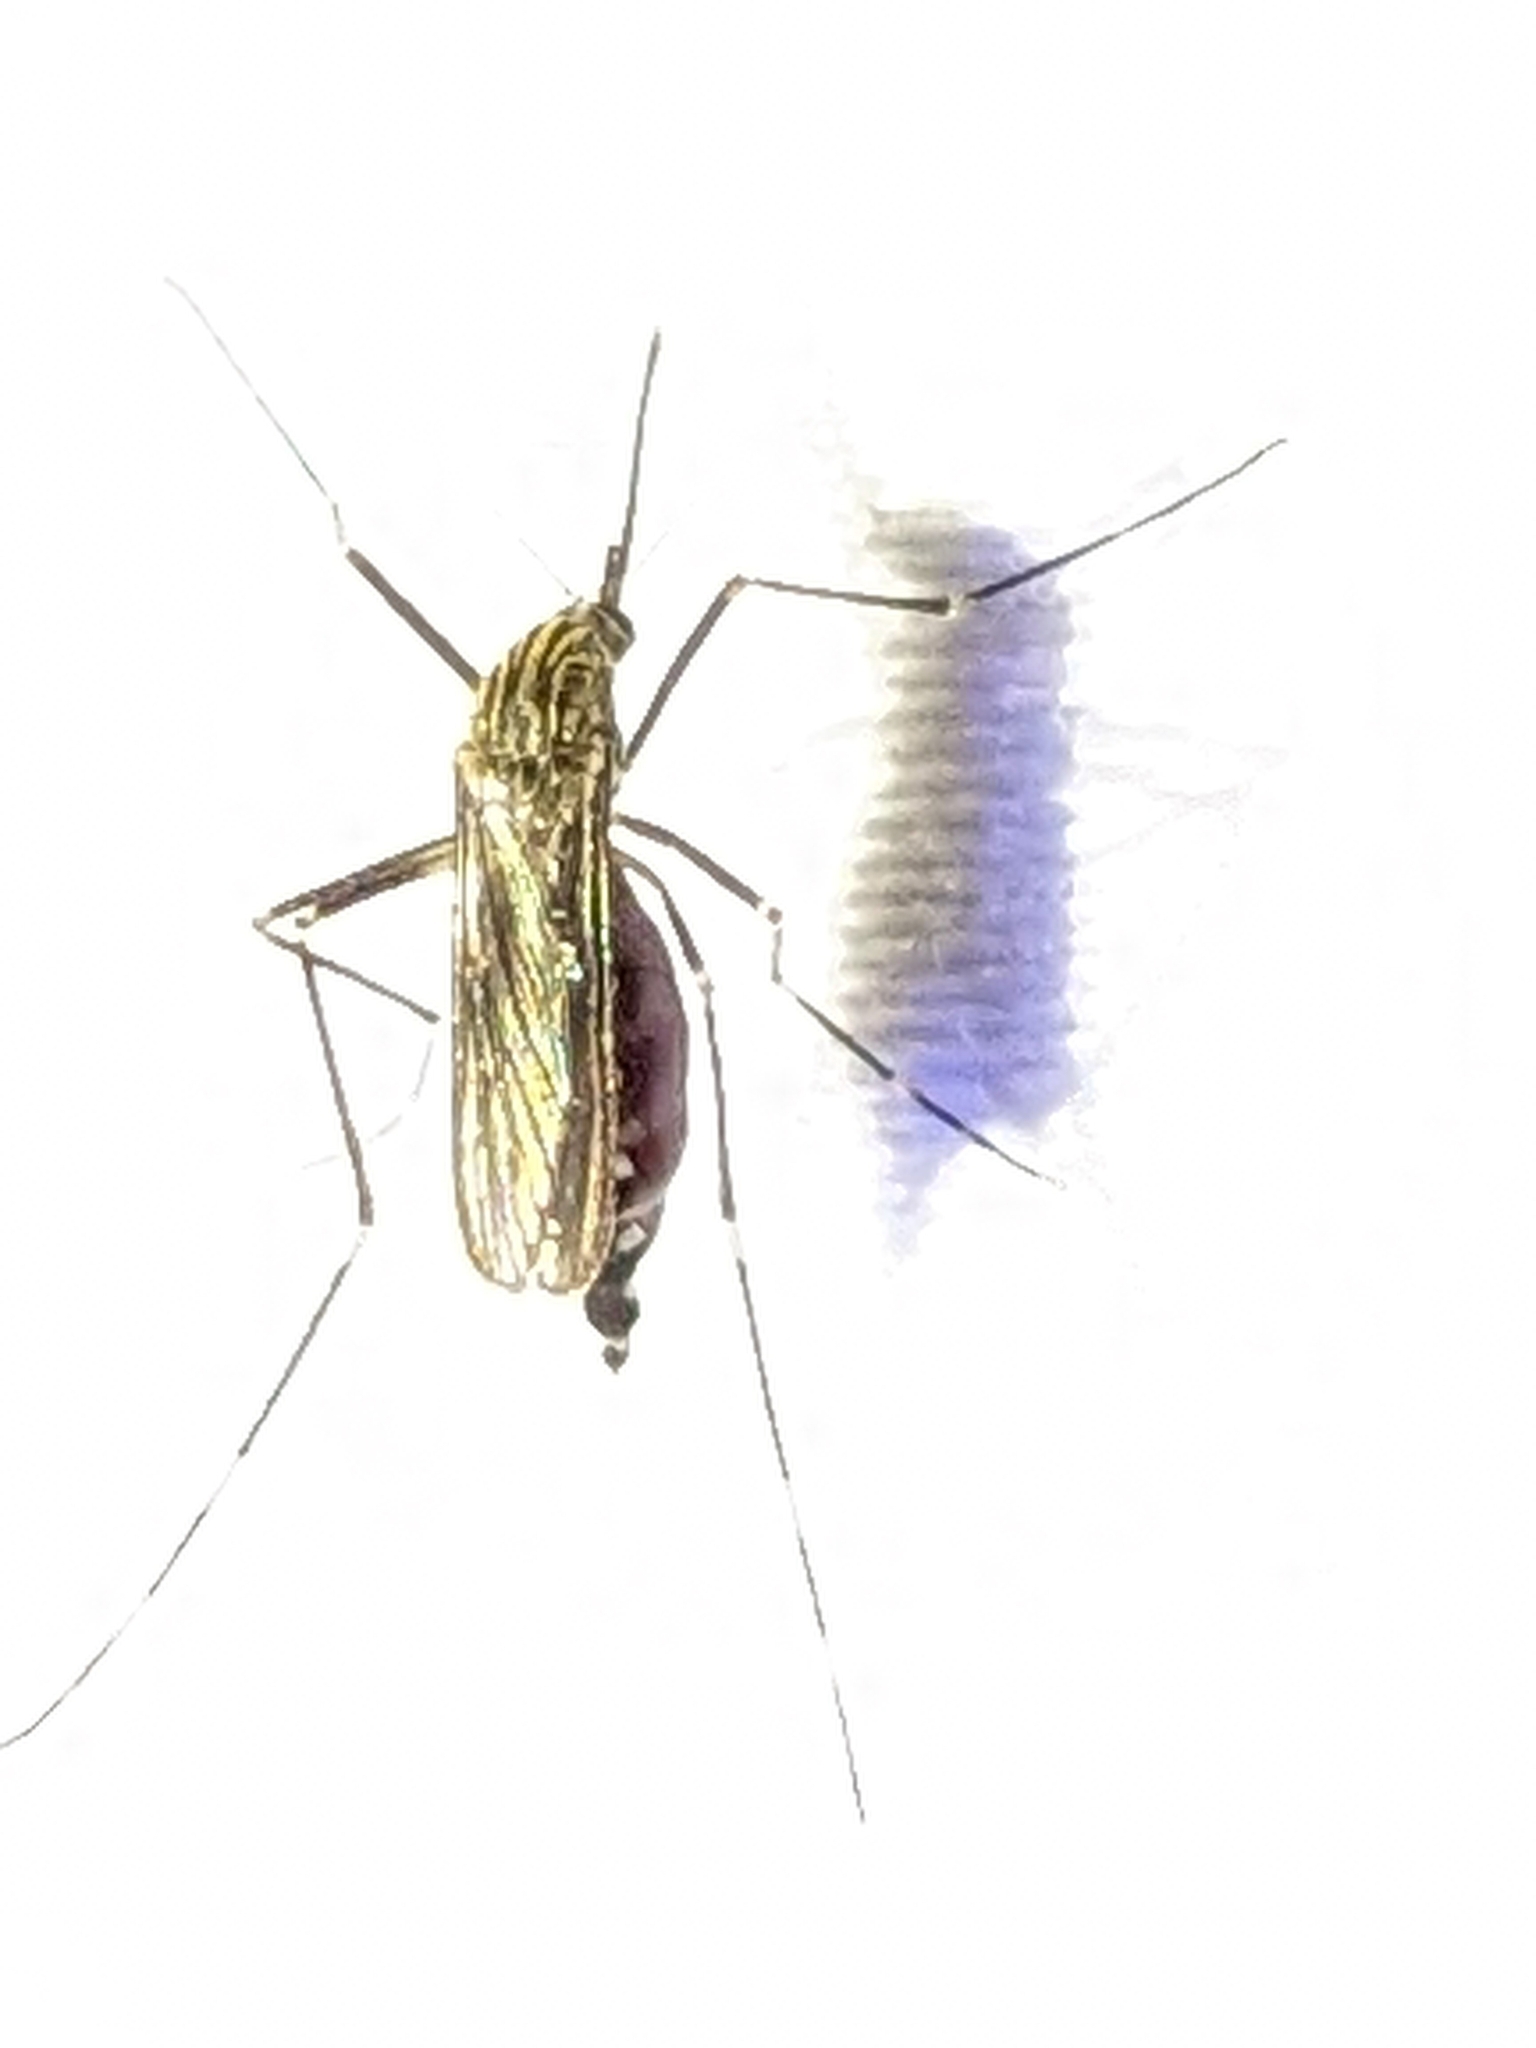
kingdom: Animalia
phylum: Arthropoda
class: Insecta
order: Diptera
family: Culicidae
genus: Aedes
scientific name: Aedes japonicus
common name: Asian bush mosquito
